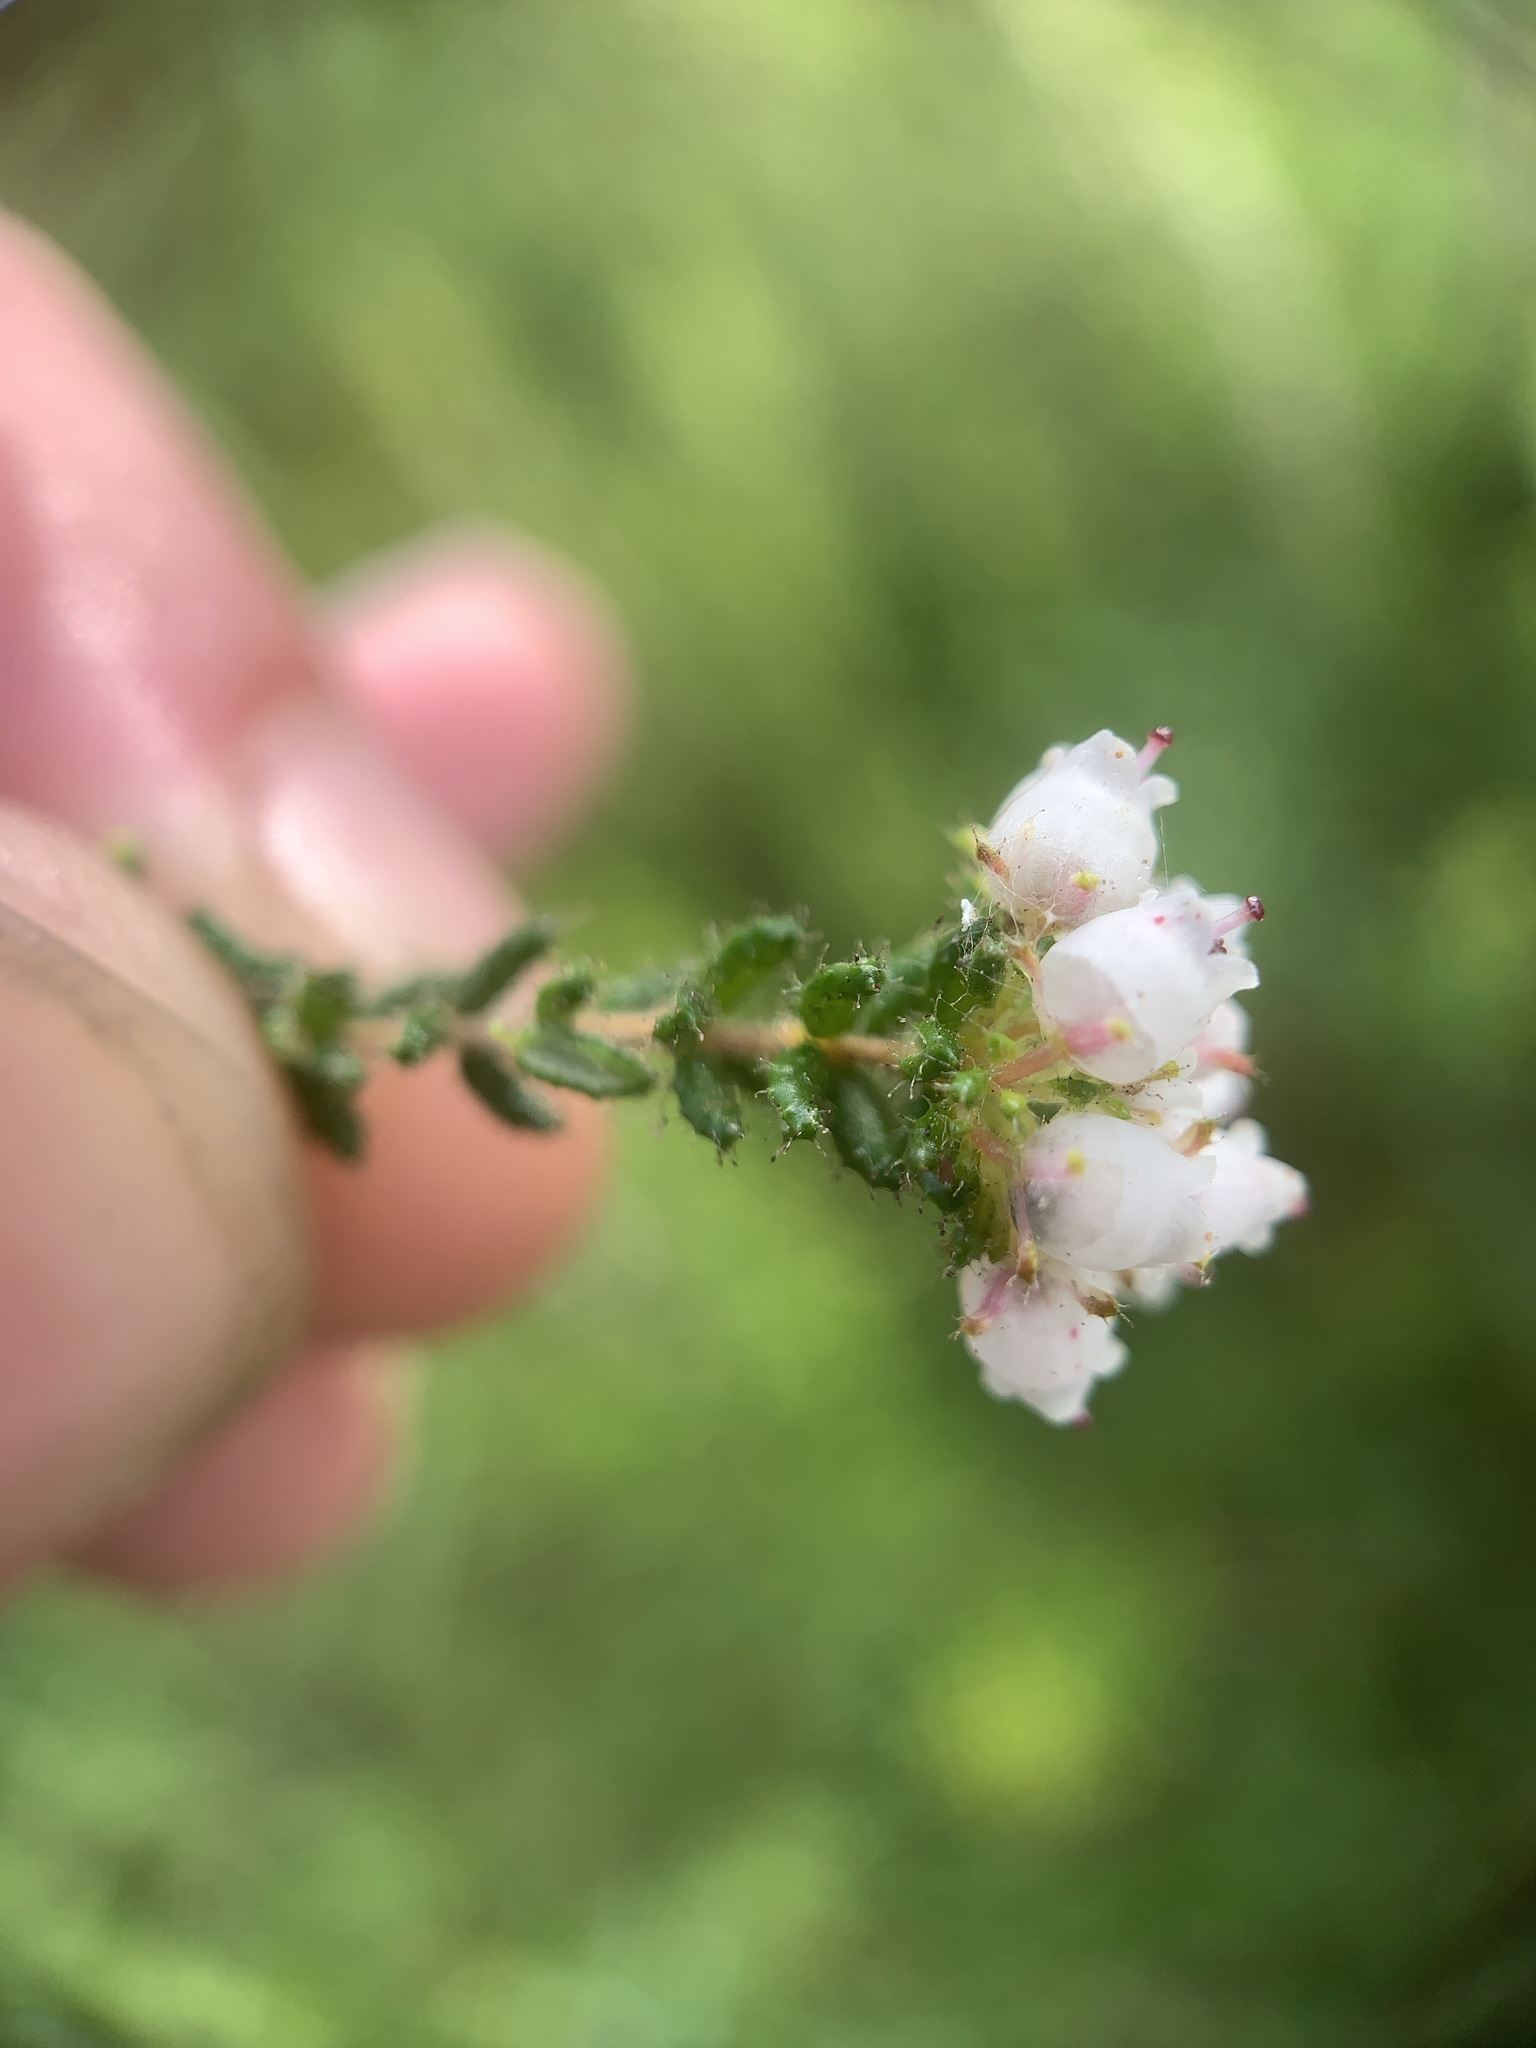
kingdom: Plantae
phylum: Tracheophyta
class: Magnoliopsida
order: Ericales
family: Ericaceae
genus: Erica
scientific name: Erica scabriuscula
